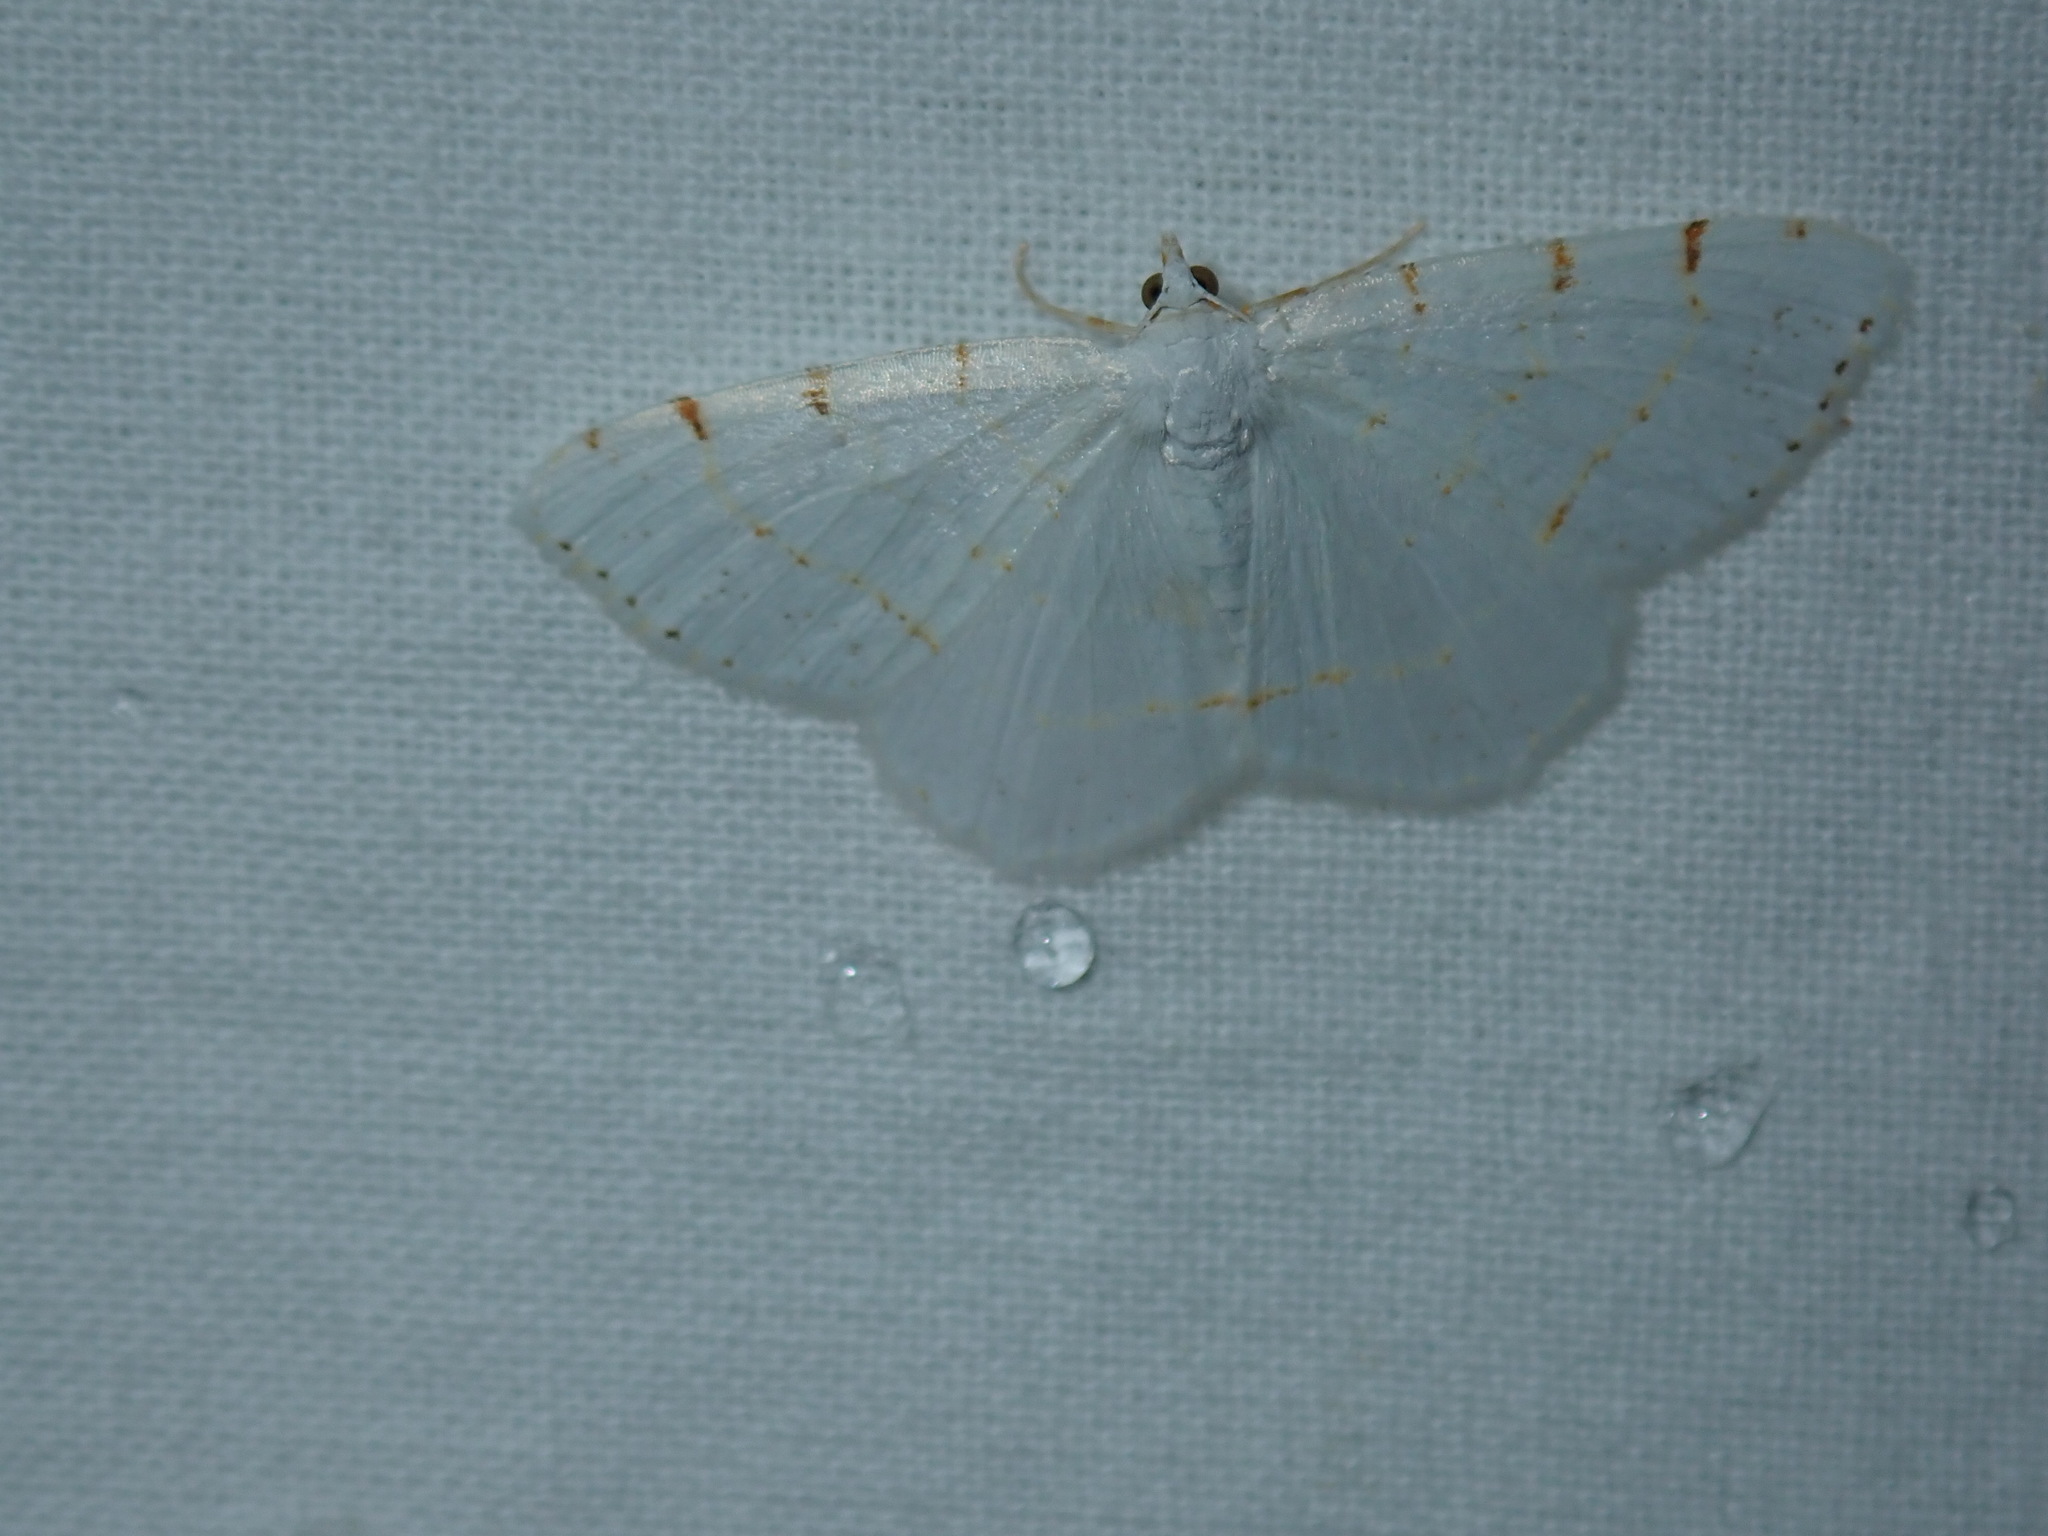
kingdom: Animalia
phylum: Arthropoda
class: Insecta
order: Lepidoptera
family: Geometridae
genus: Macaria
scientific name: Macaria pustularia
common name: Lesser maple spanworm moth
